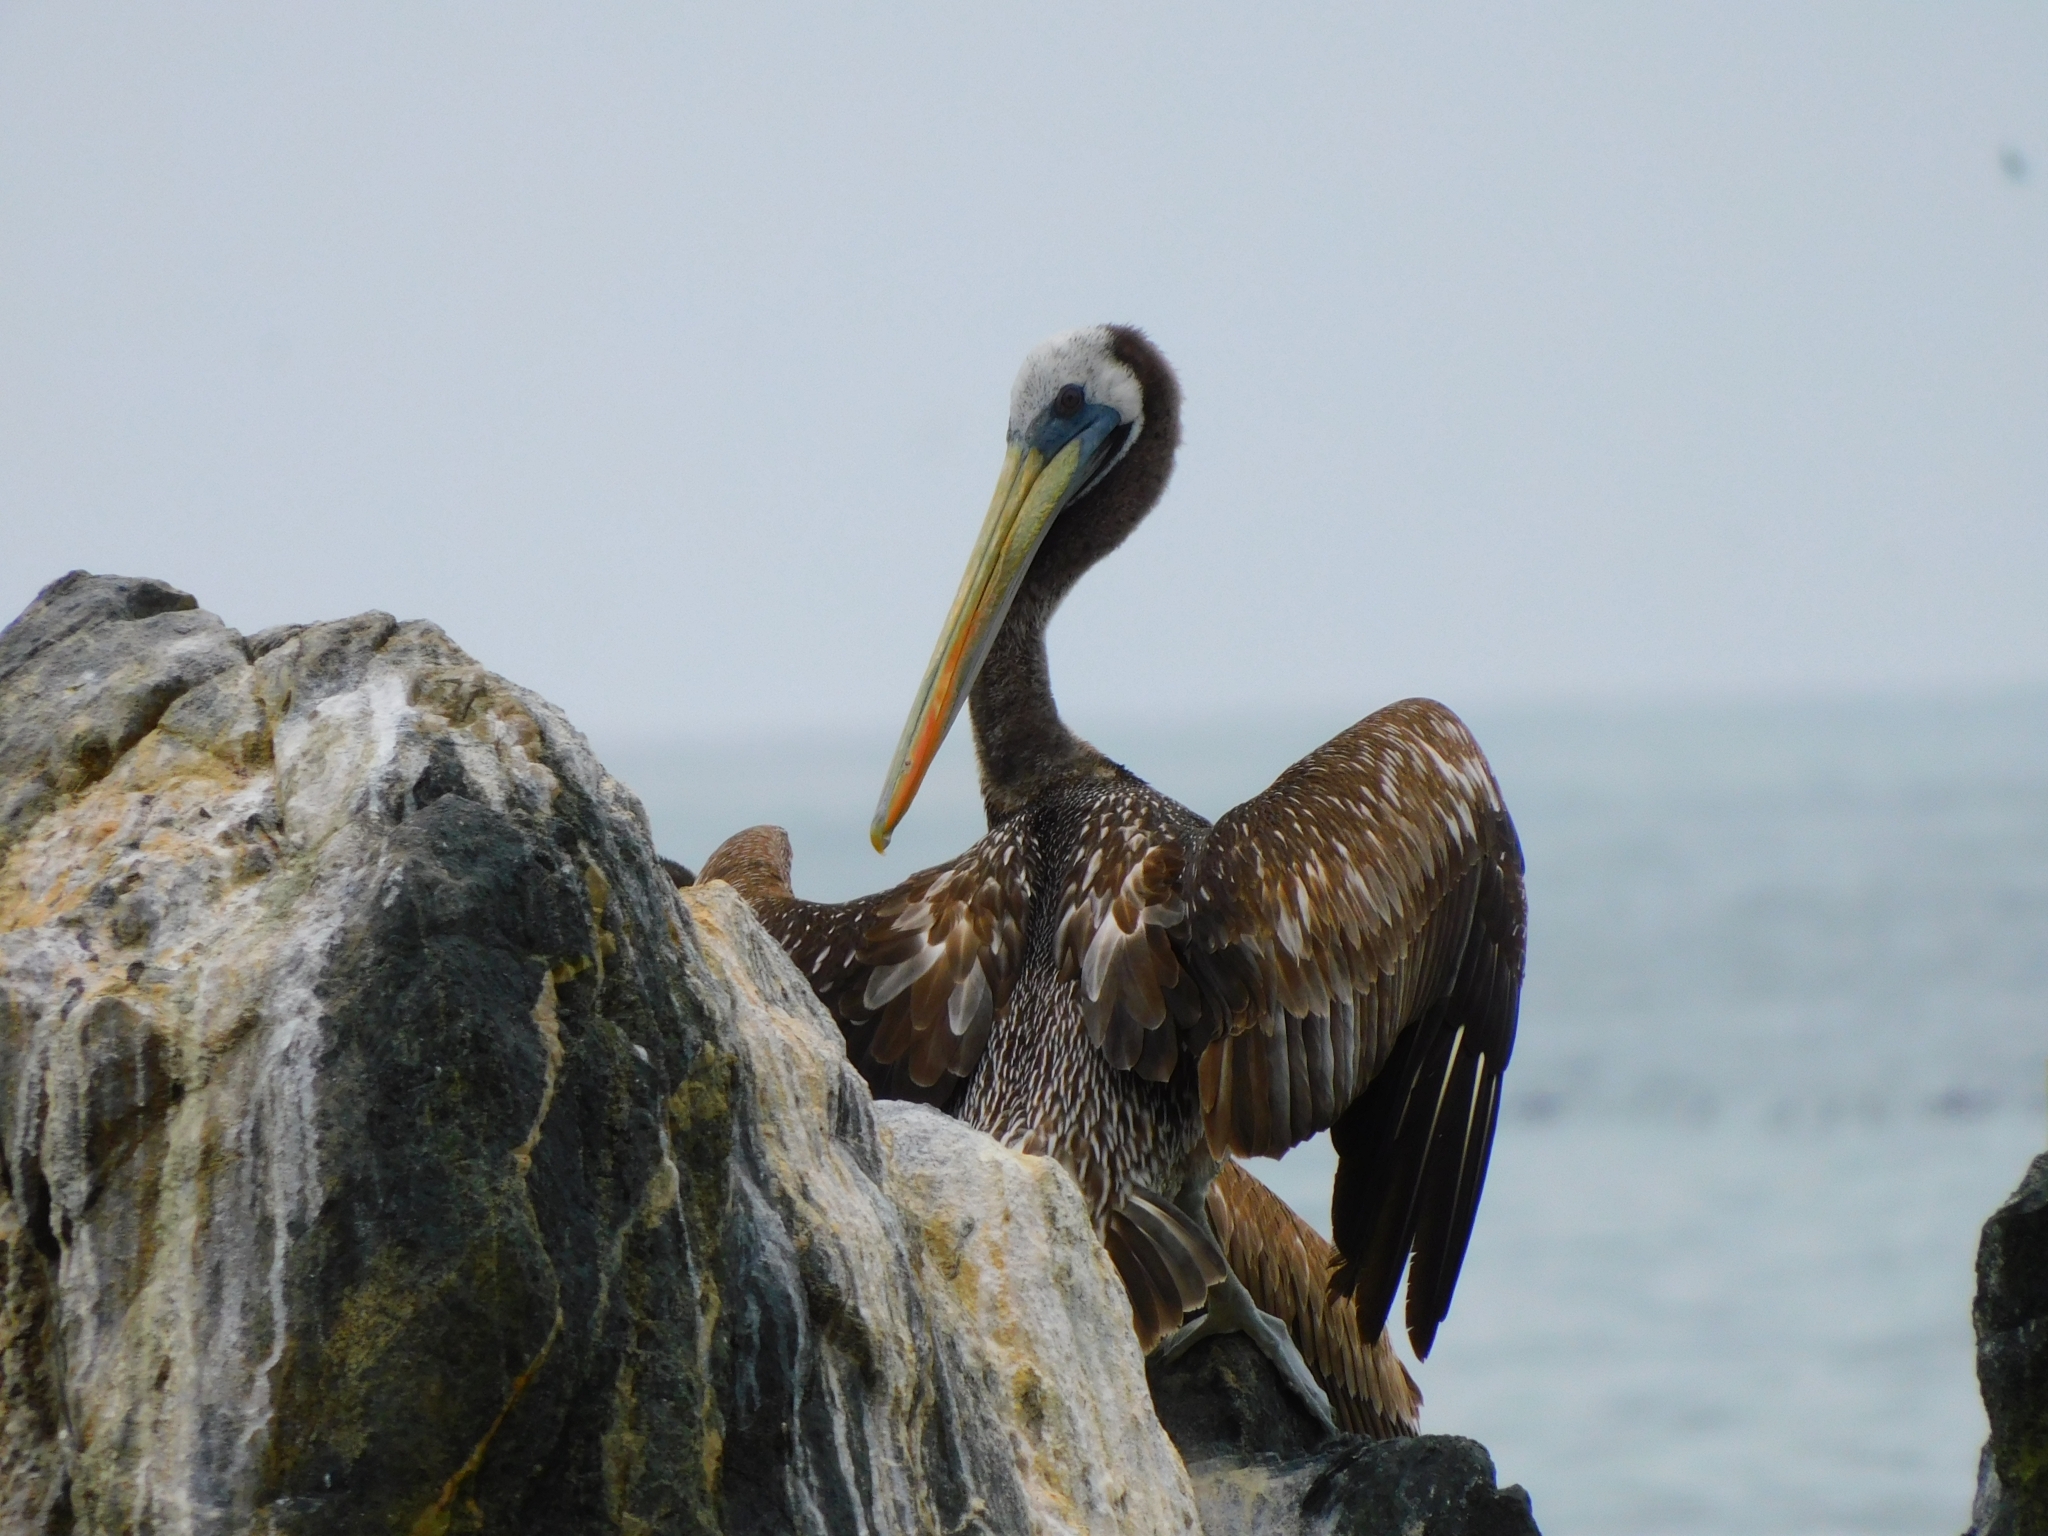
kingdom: Animalia
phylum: Chordata
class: Aves
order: Pelecaniformes
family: Pelecanidae
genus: Pelecanus
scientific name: Pelecanus thagus
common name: Peruvian pelican
